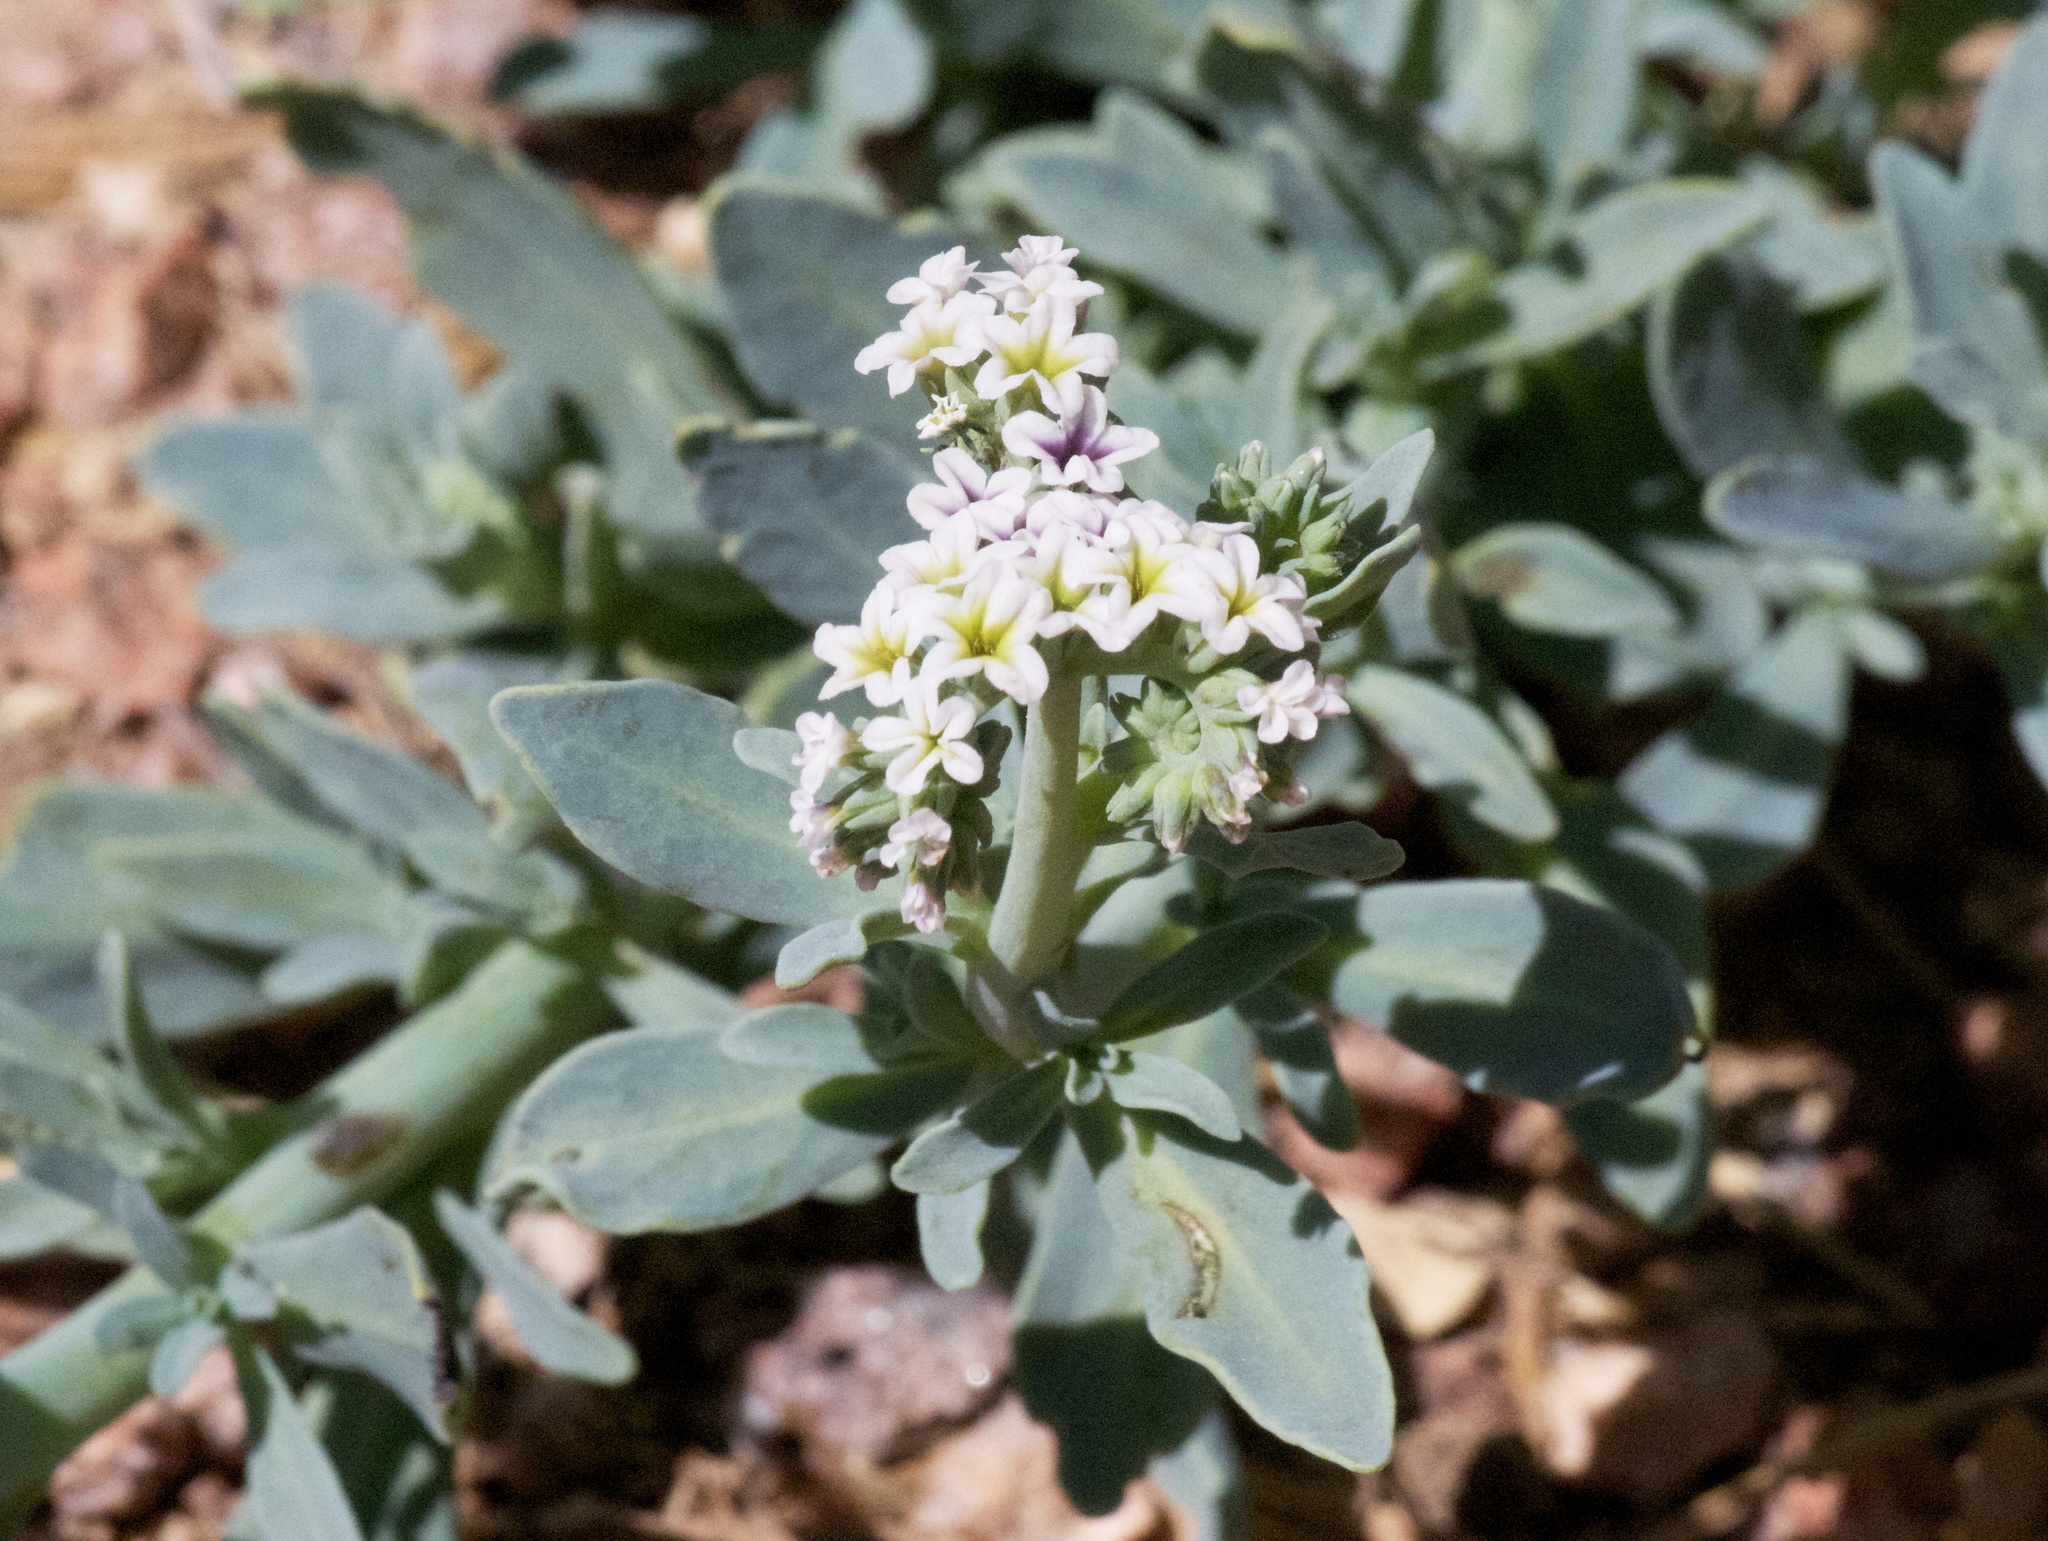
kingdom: Plantae
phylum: Tracheophyta
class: Magnoliopsida
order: Boraginales
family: Heliotropiaceae
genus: Heliotropium
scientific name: Heliotropium curassavicum
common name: Seaside heliotrope
